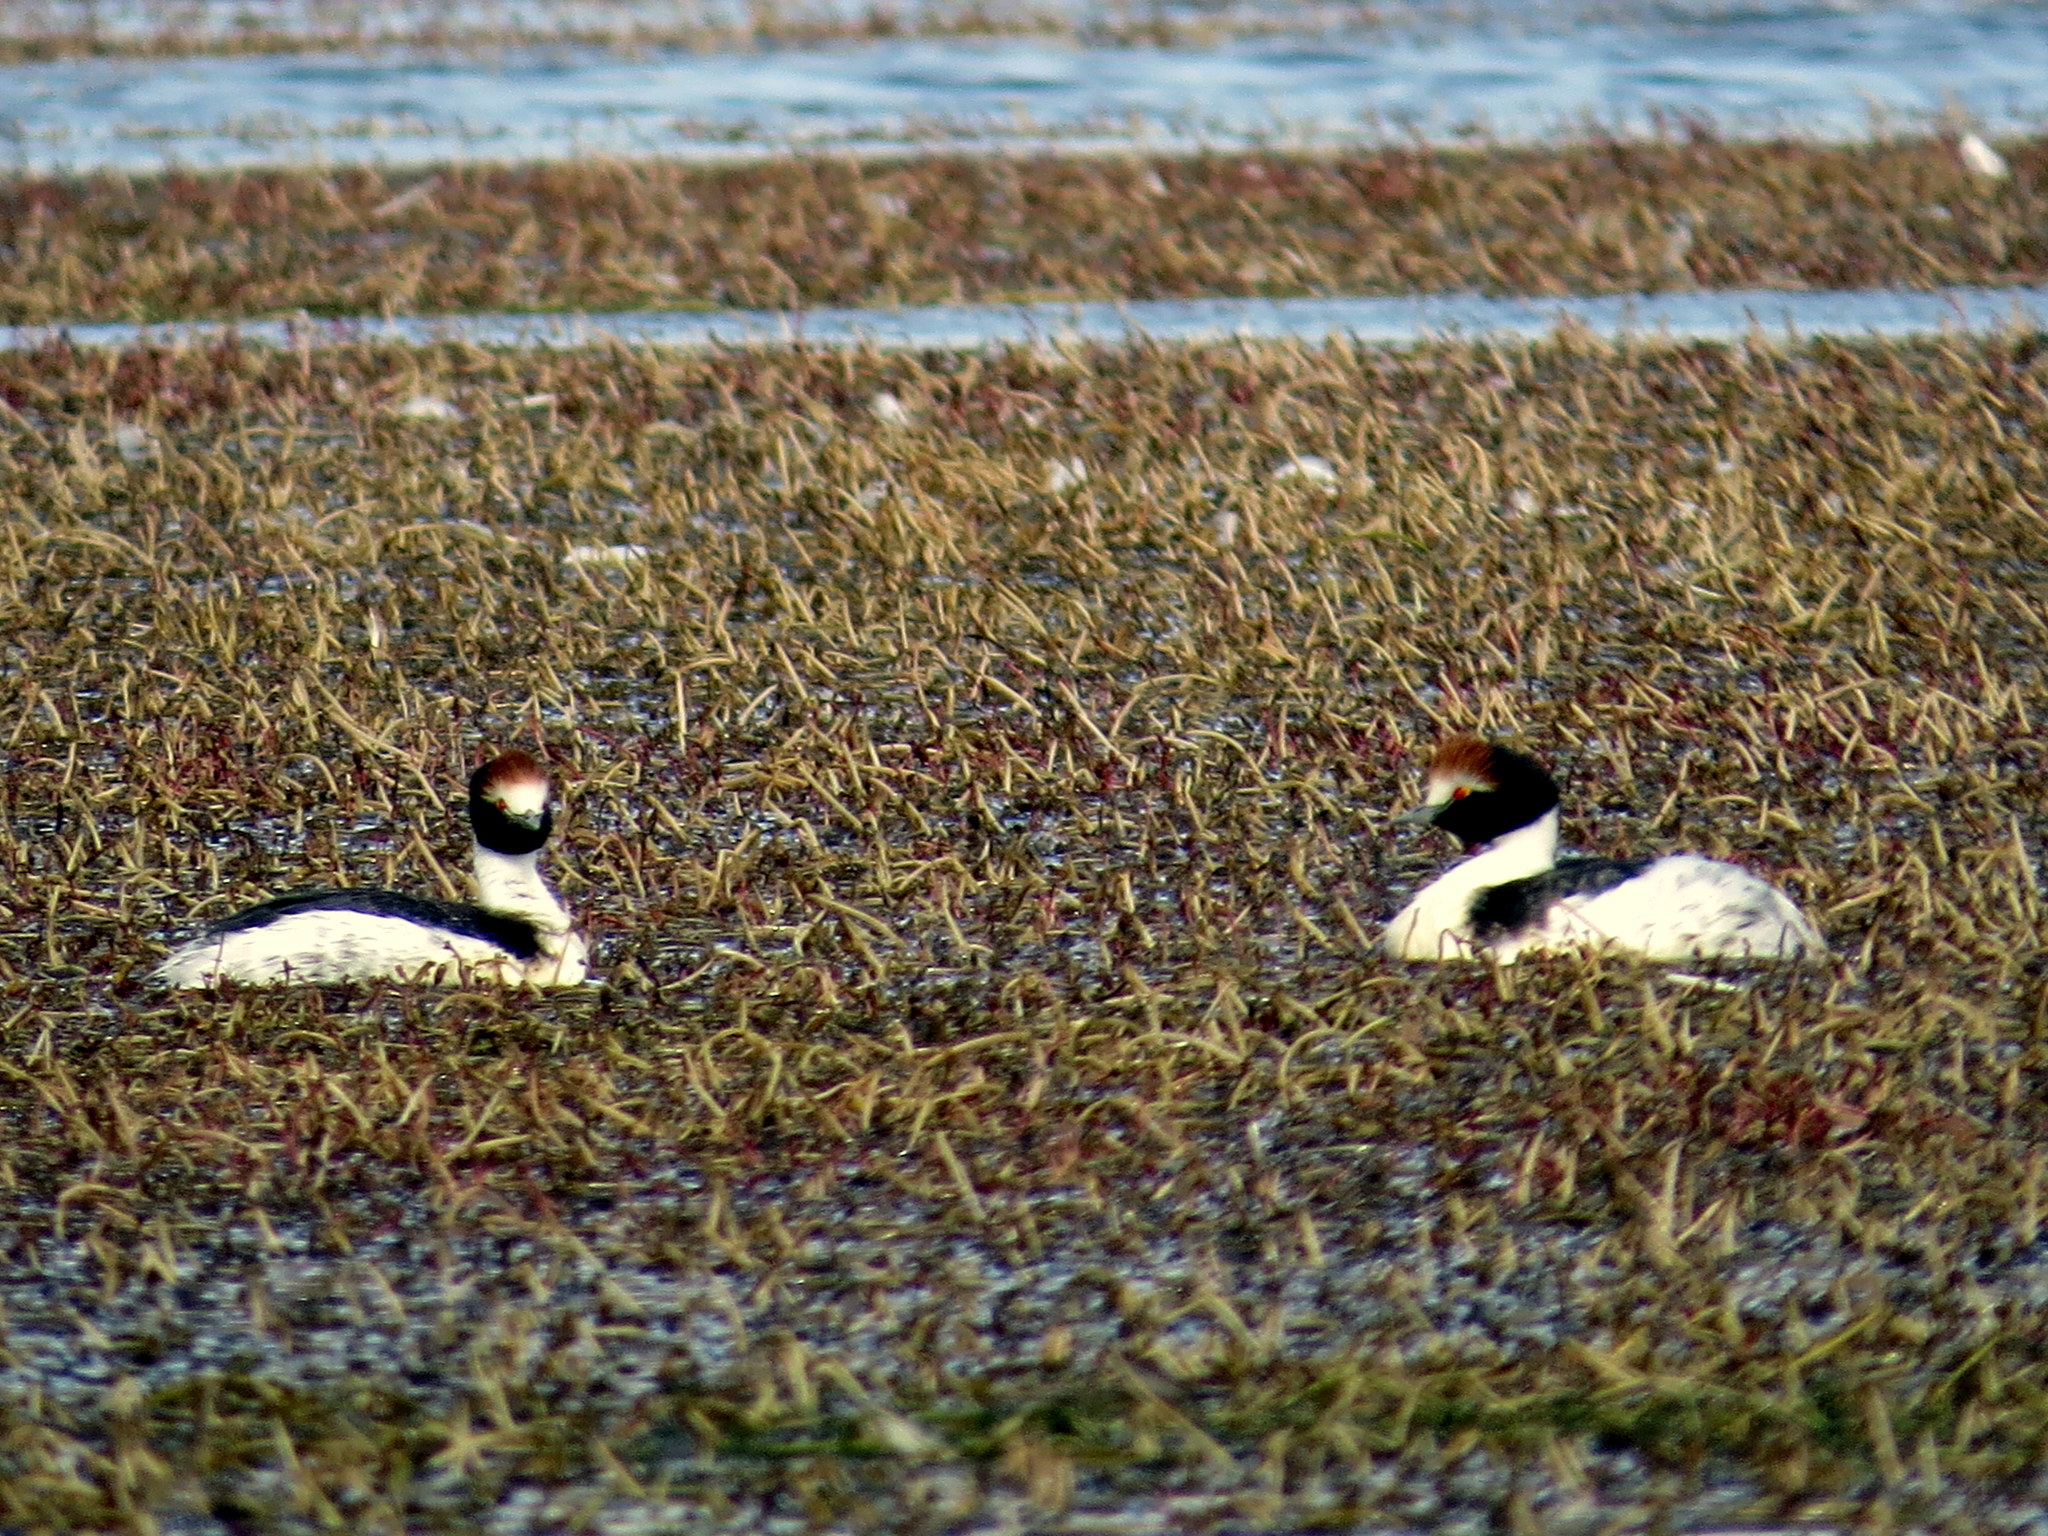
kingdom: Animalia
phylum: Chordata
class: Aves
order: Podicipediformes
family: Podicipedidae
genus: Podiceps
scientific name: Podiceps gallardoi
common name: Hooded grebe
